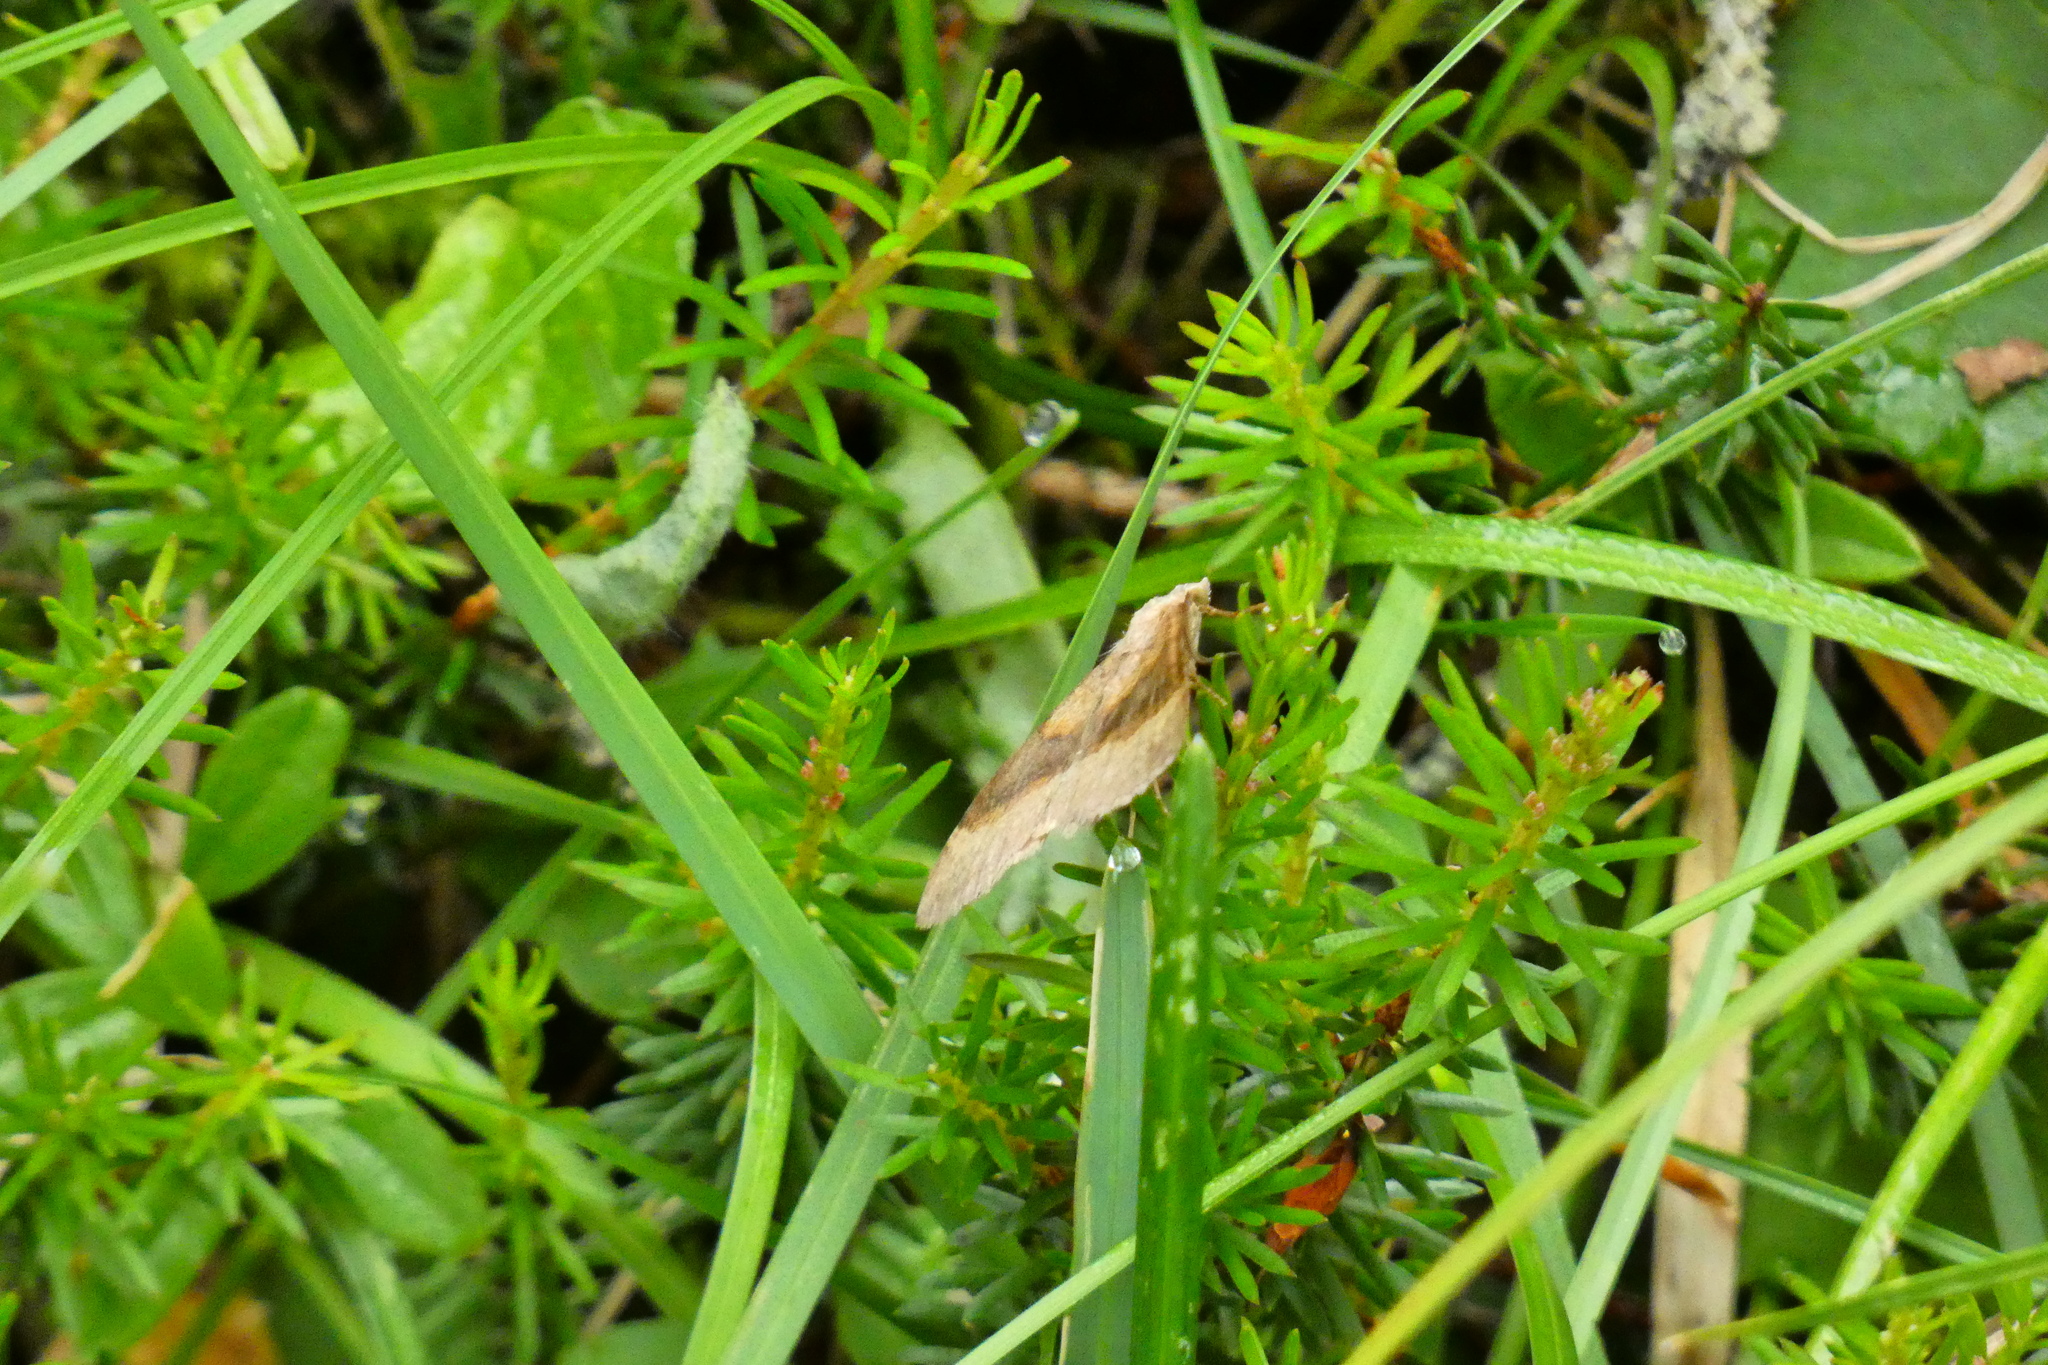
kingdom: Animalia
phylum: Arthropoda
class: Insecta
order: Lepidoptera
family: Geometridae
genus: Scotopteryx
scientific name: Scotopteryx chenopodiata
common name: Shaded broad-bar
